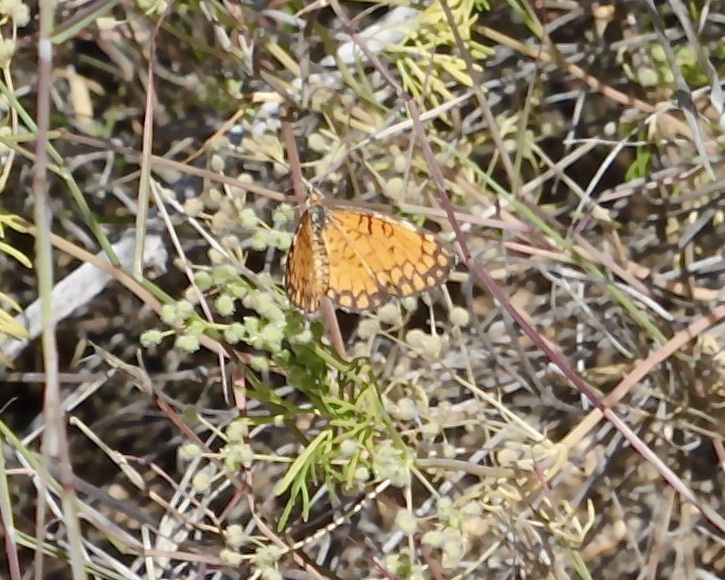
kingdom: Animalia
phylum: Arthropoda
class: Insecta
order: Lepidoptera
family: Nymphalidae
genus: Dymasia
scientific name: Dymasia dymas
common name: Tiny checkerspot
